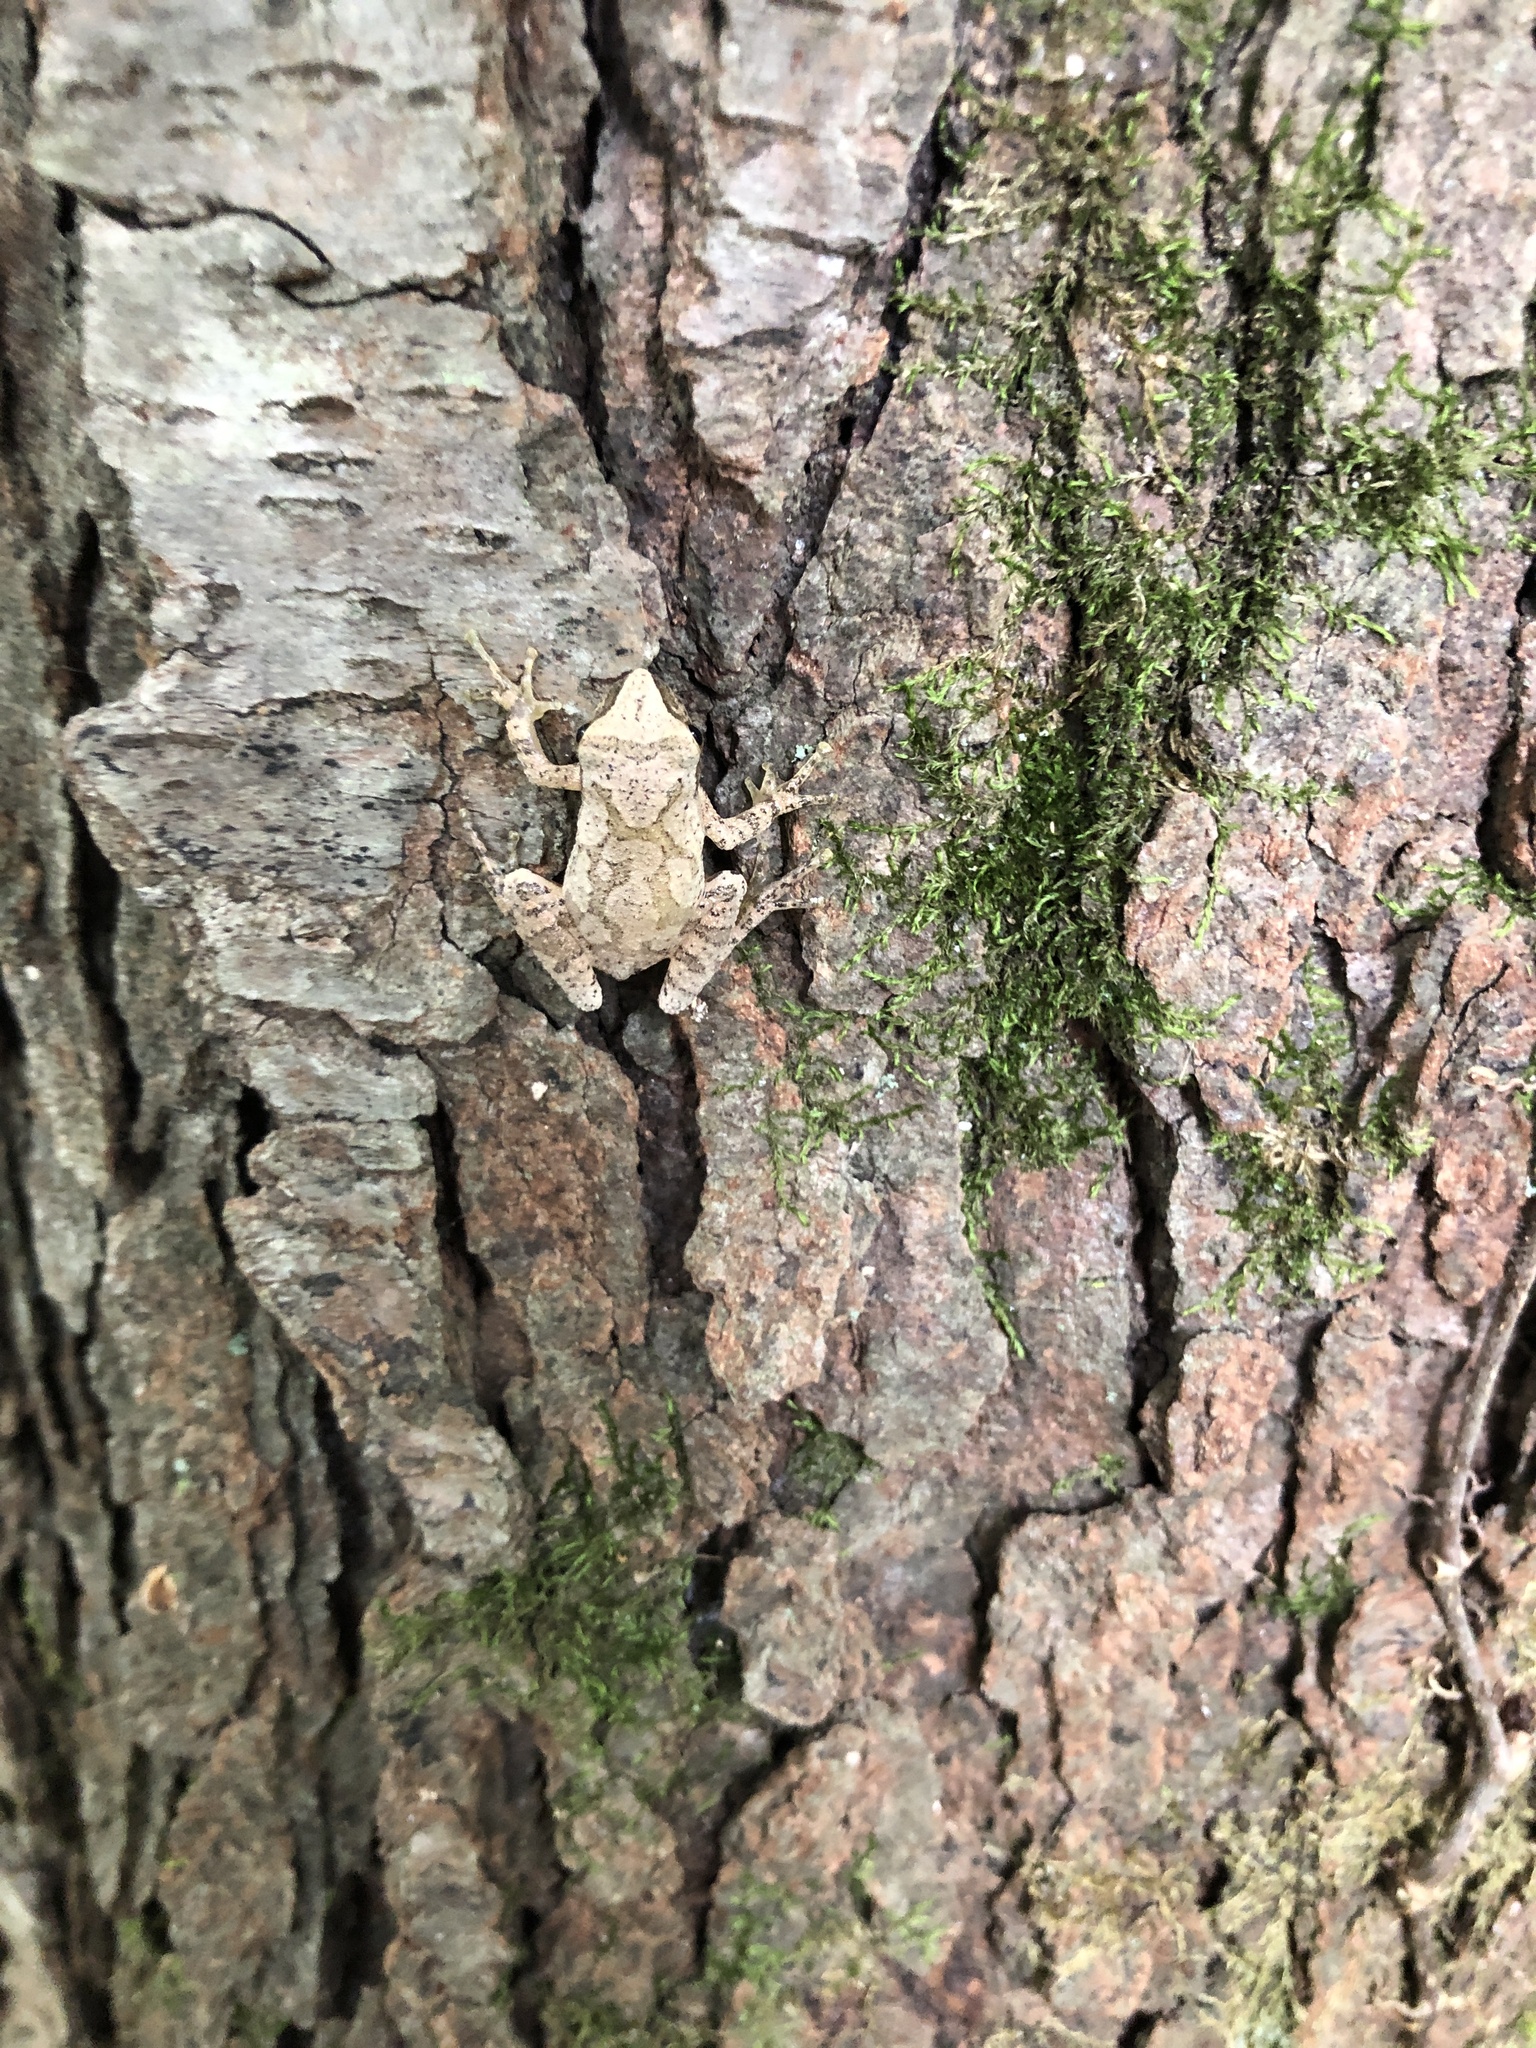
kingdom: Animalia
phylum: Chordata
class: Amphibia
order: Anura
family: Hylidae
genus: Pseudacris
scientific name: Pseudacris crucifer
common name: Spring peeper
